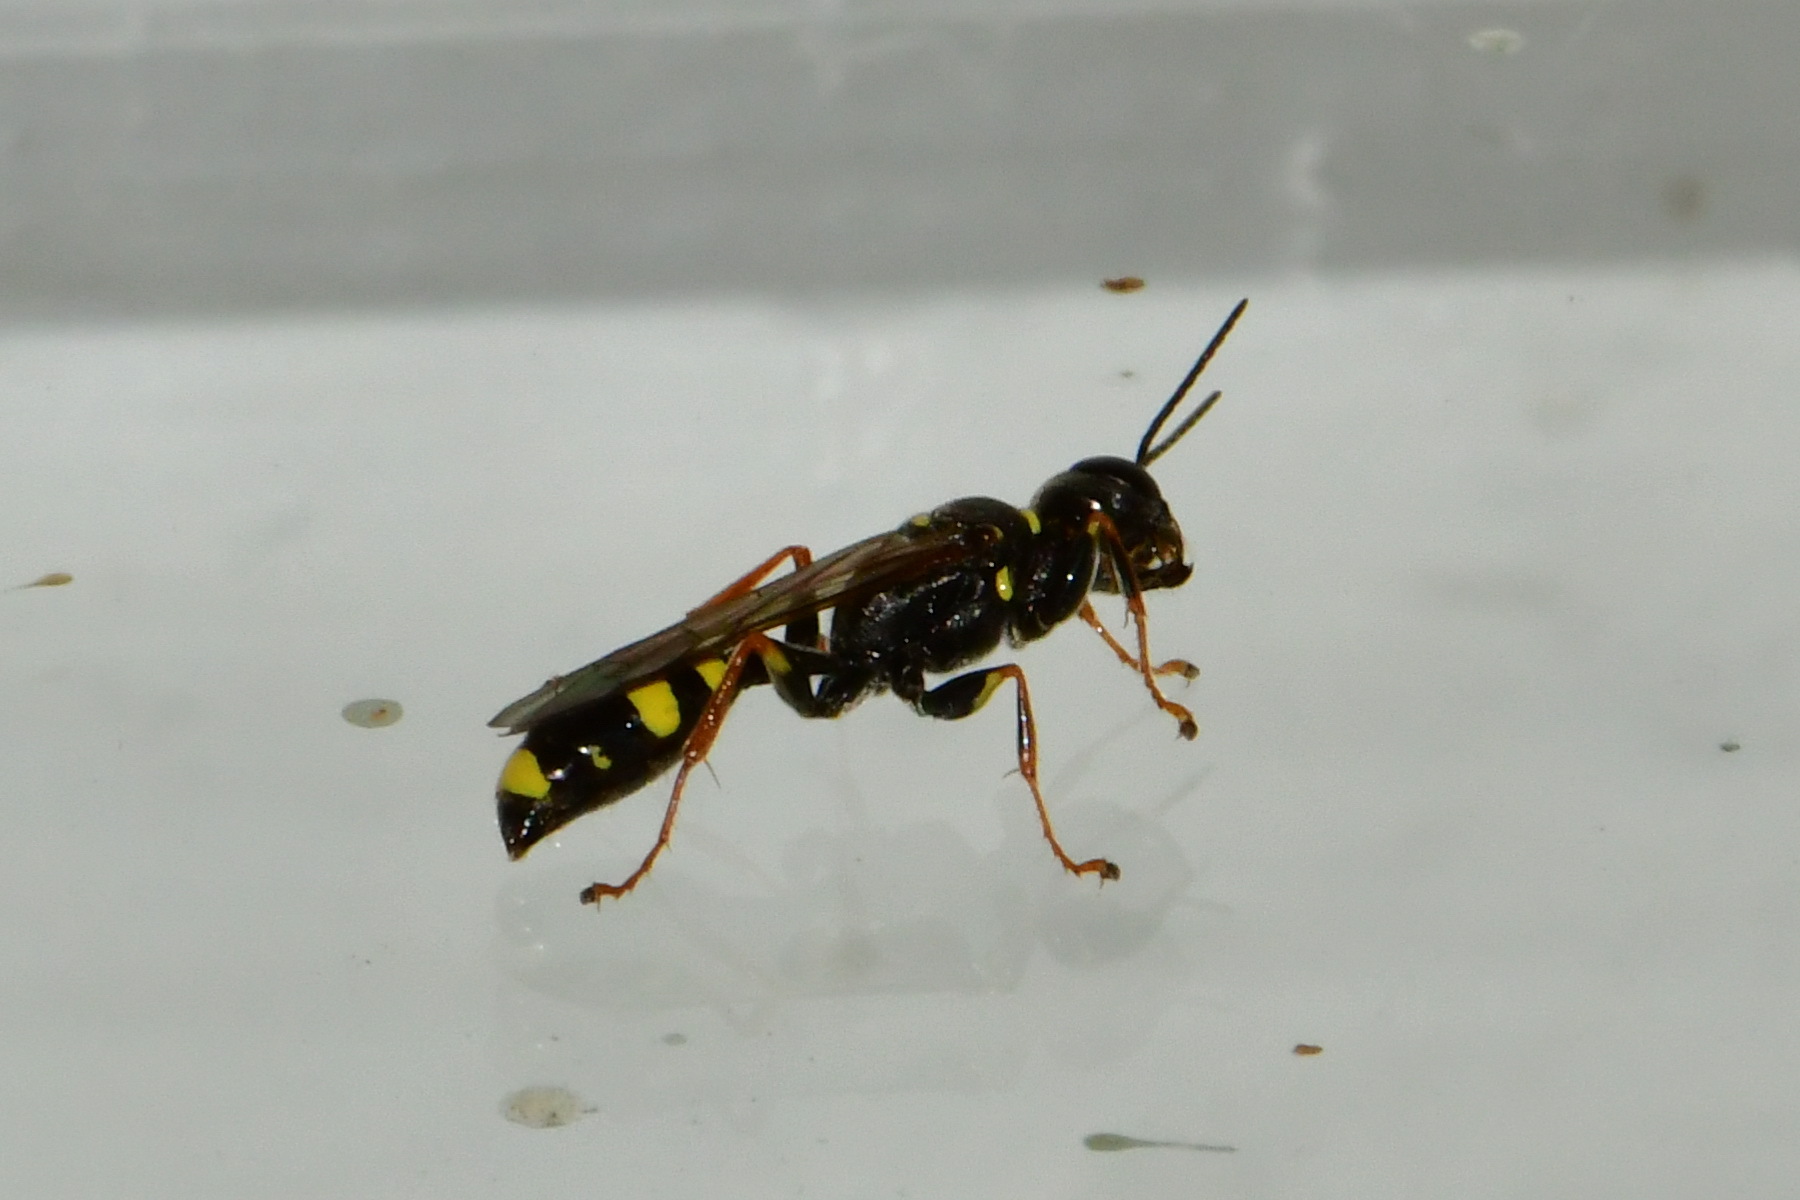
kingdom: Animalia
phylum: Arthropoda
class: Insecta
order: Hymenoptera
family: Crabronidae
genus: Mellinus
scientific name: Mellinus arvensis
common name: Field digger wasp
